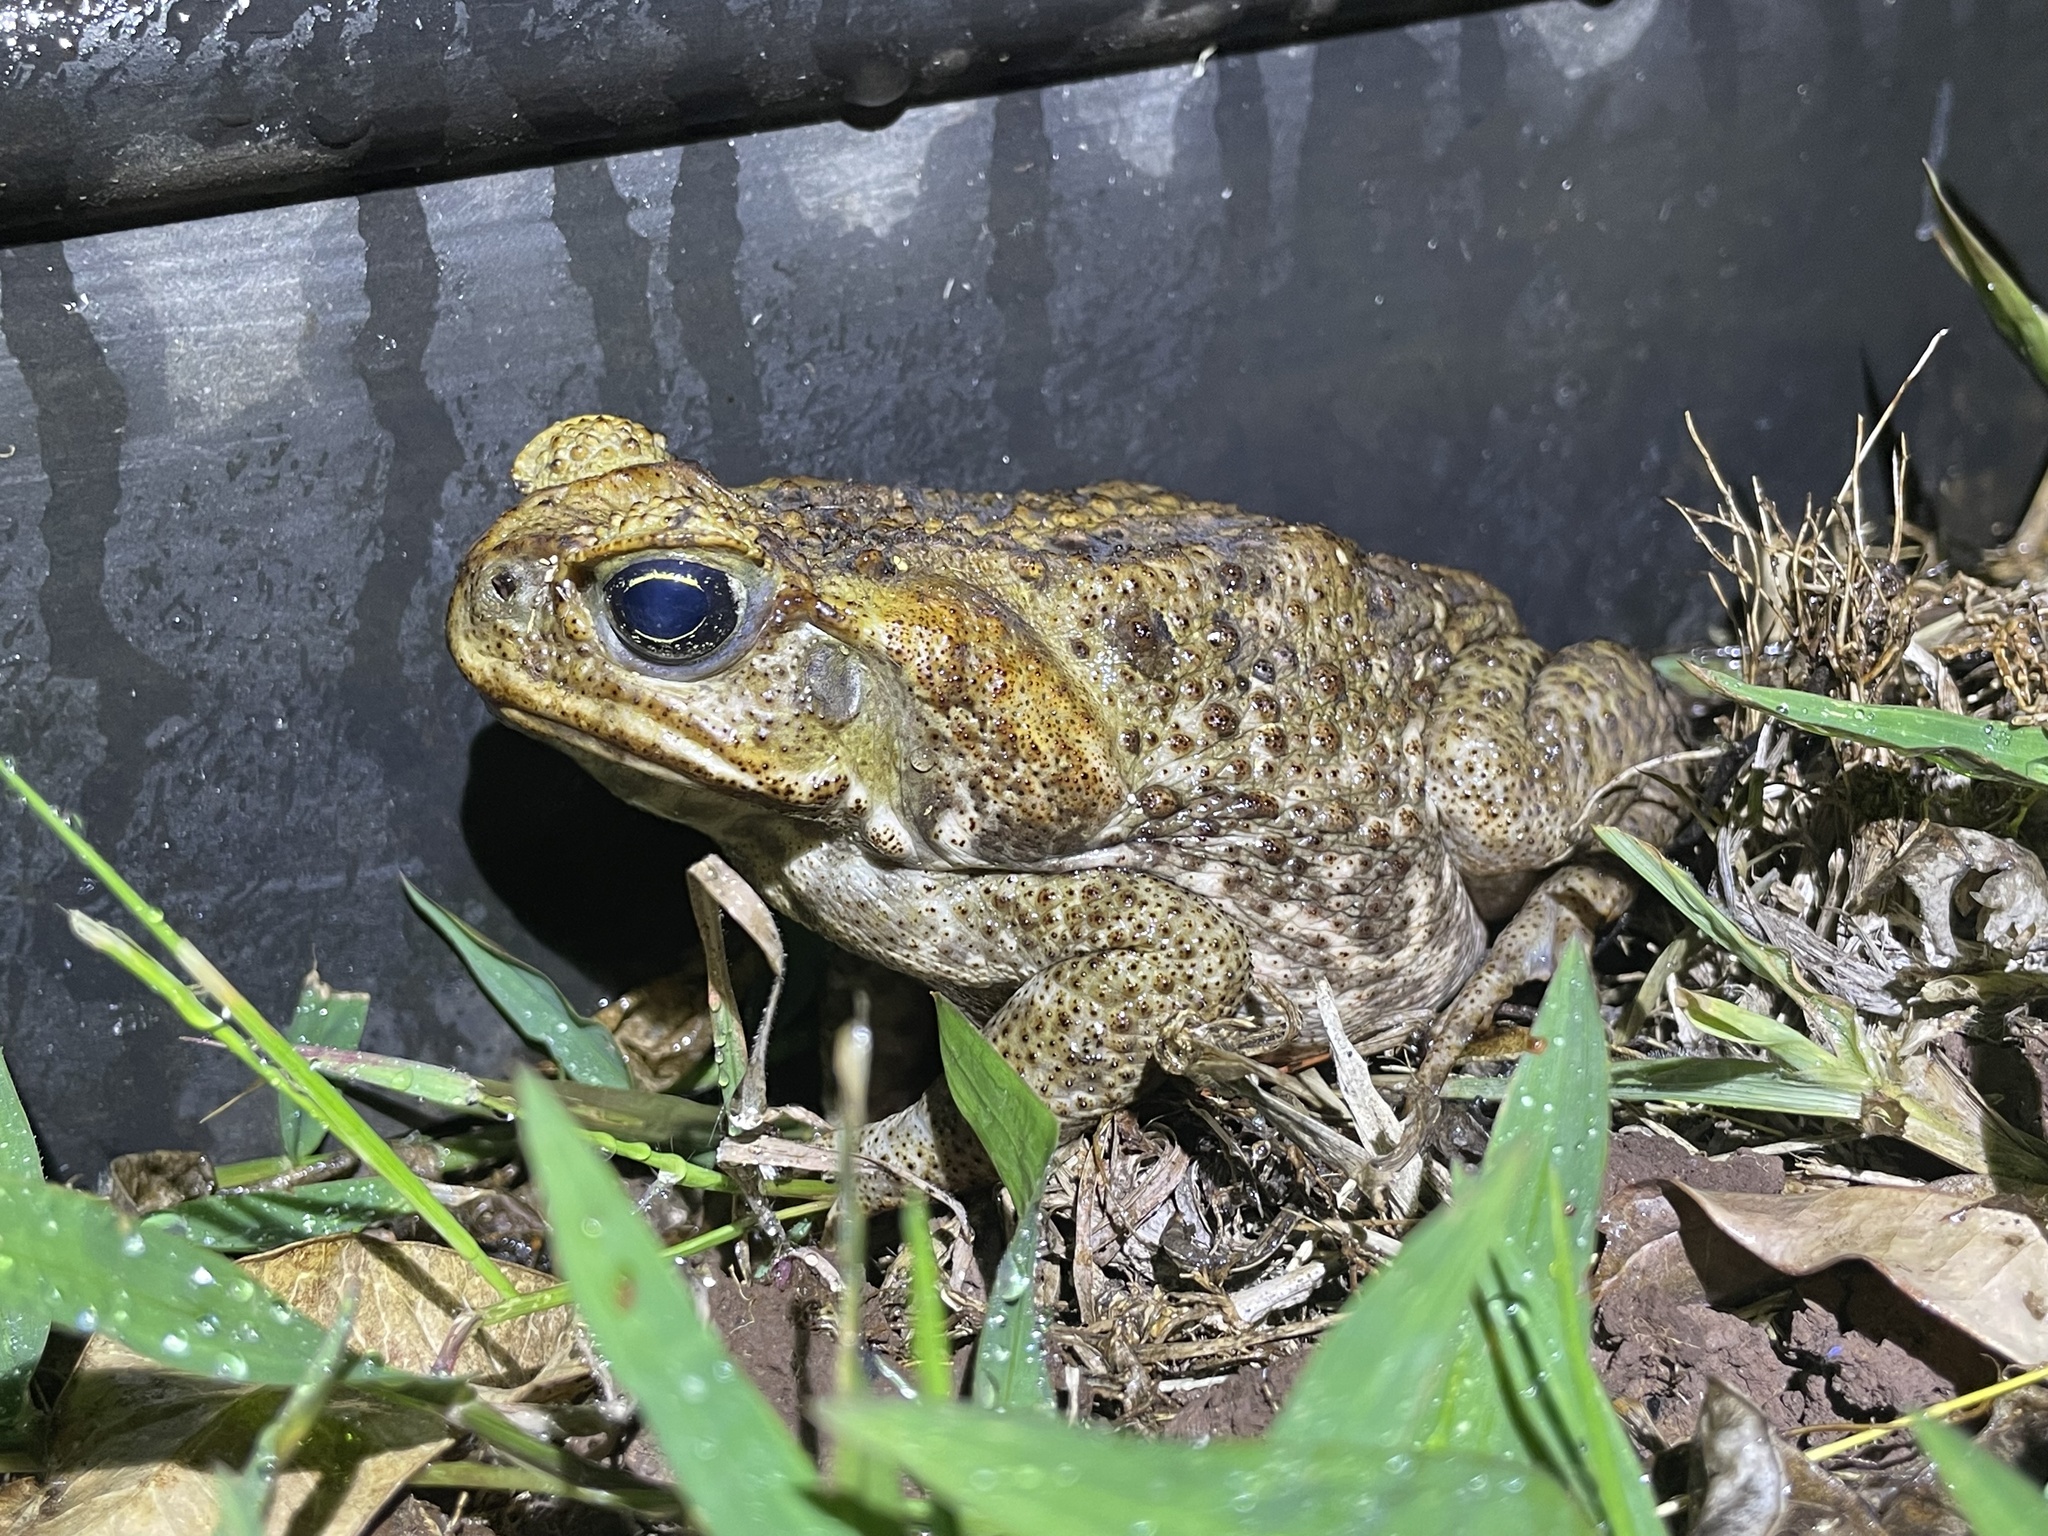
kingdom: Animalia
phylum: Chordata
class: Amphibia
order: Anura
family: Bufonidae
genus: Rhinella
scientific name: Rhinella marina
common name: Cane toad
